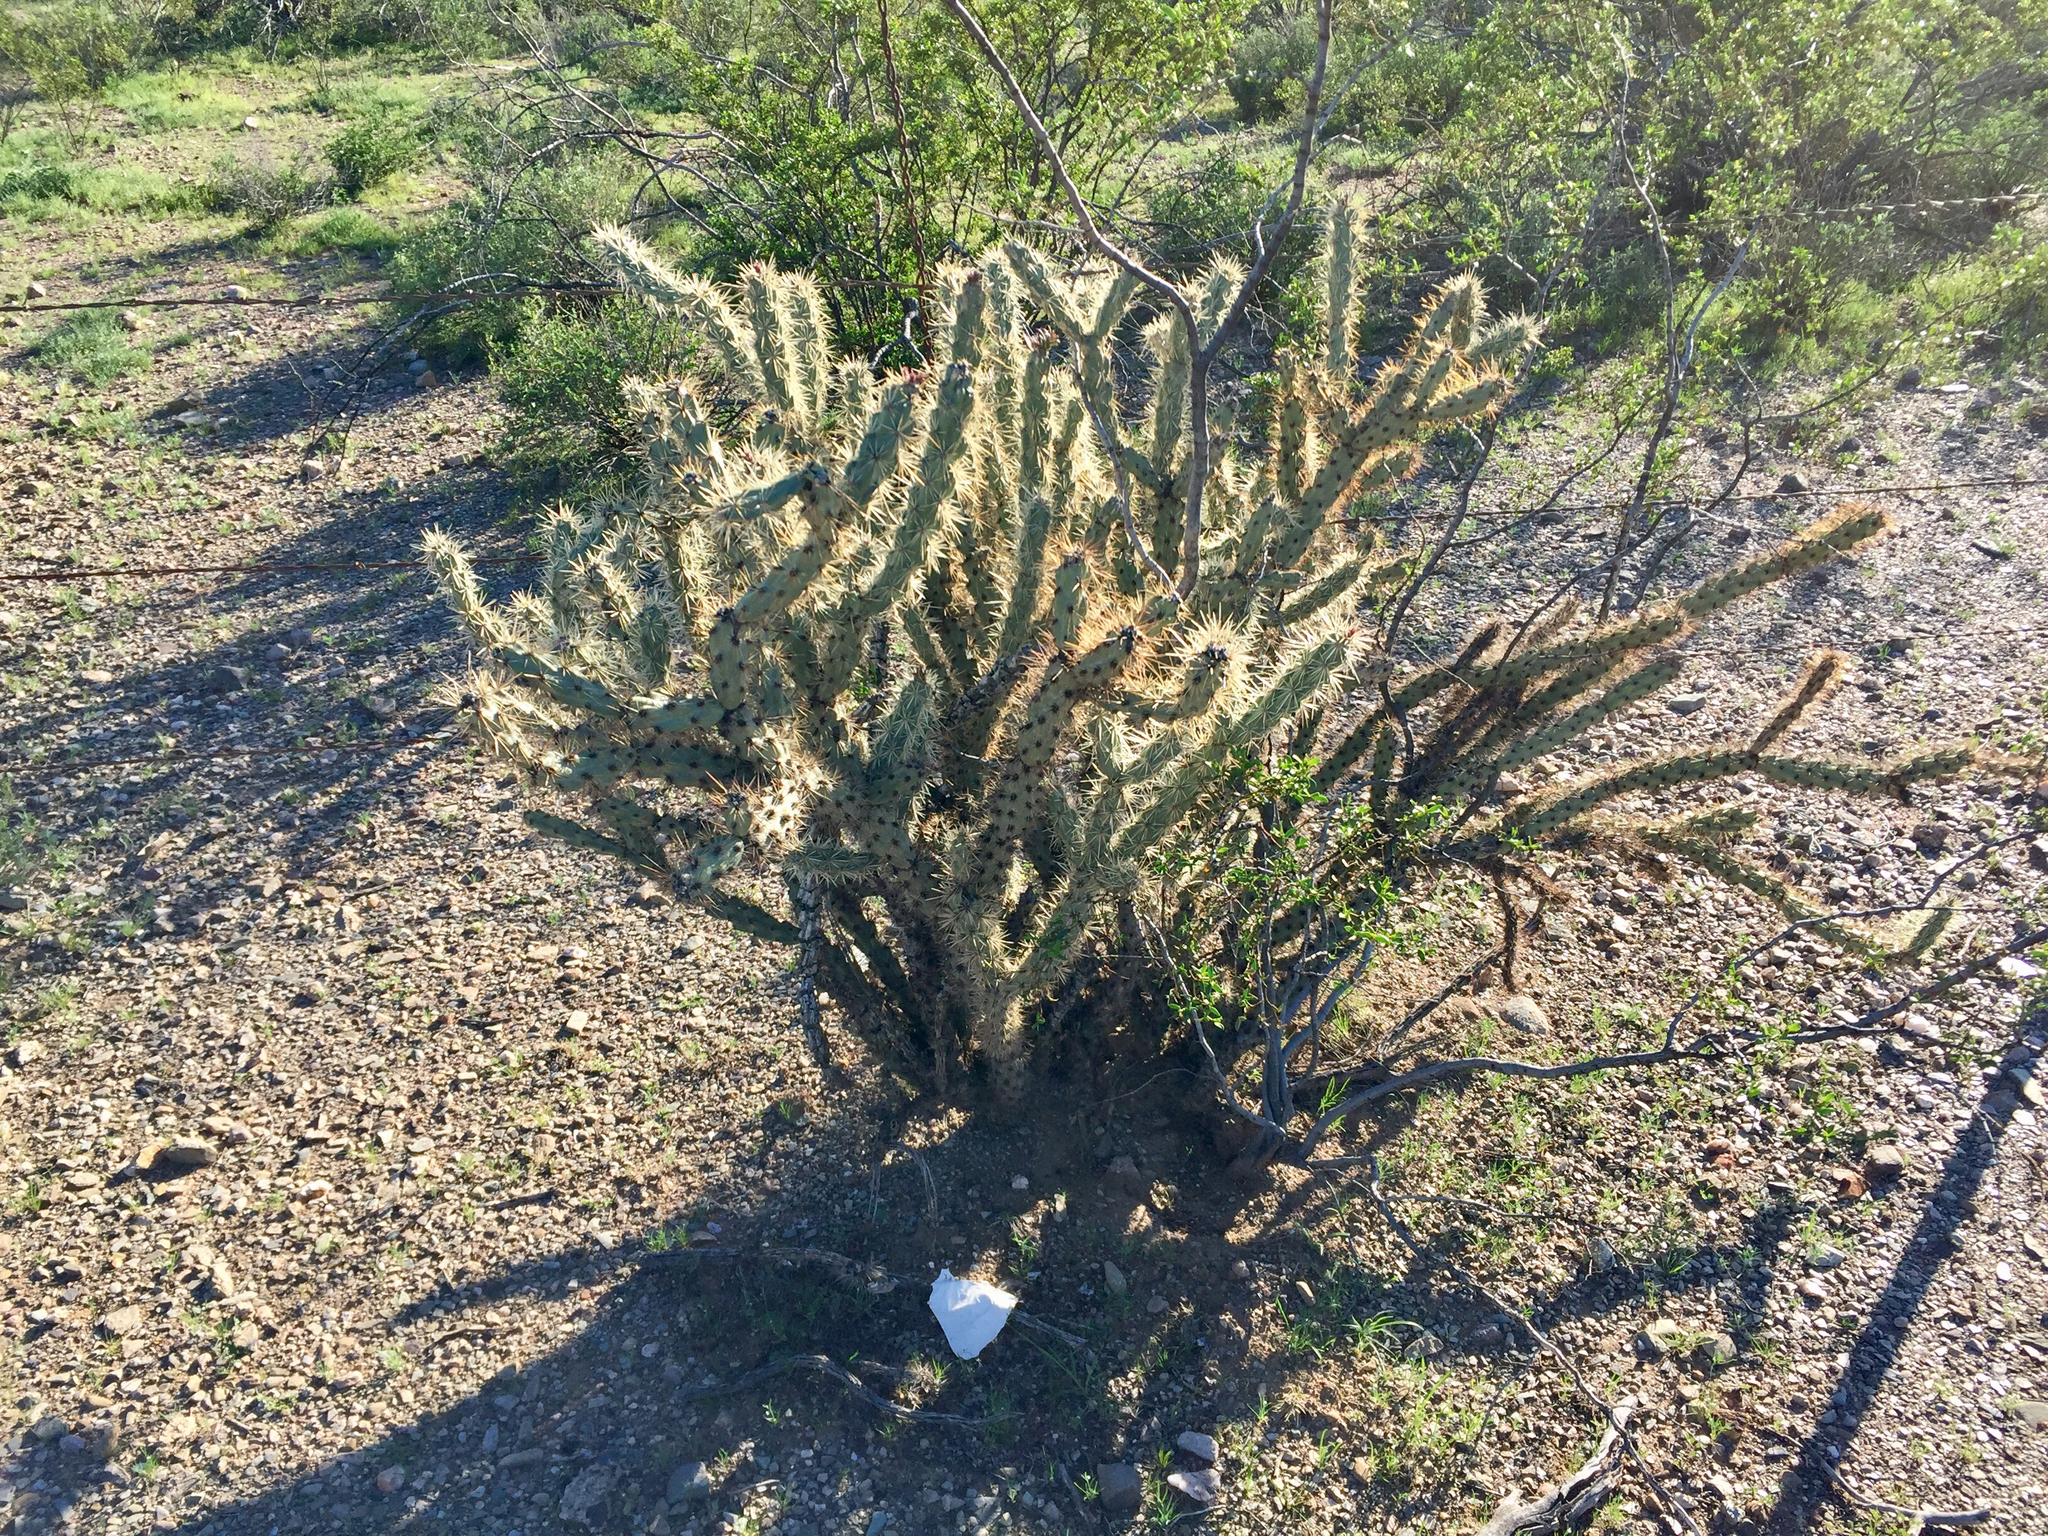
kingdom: Plantae
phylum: Tracheophyta
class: Magnoliopsida
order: Caryophyllales
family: Cactaceae
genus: Cylindropuntia
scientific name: Cylindropuntia acanthocarpa
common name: Buckhorn cholla
